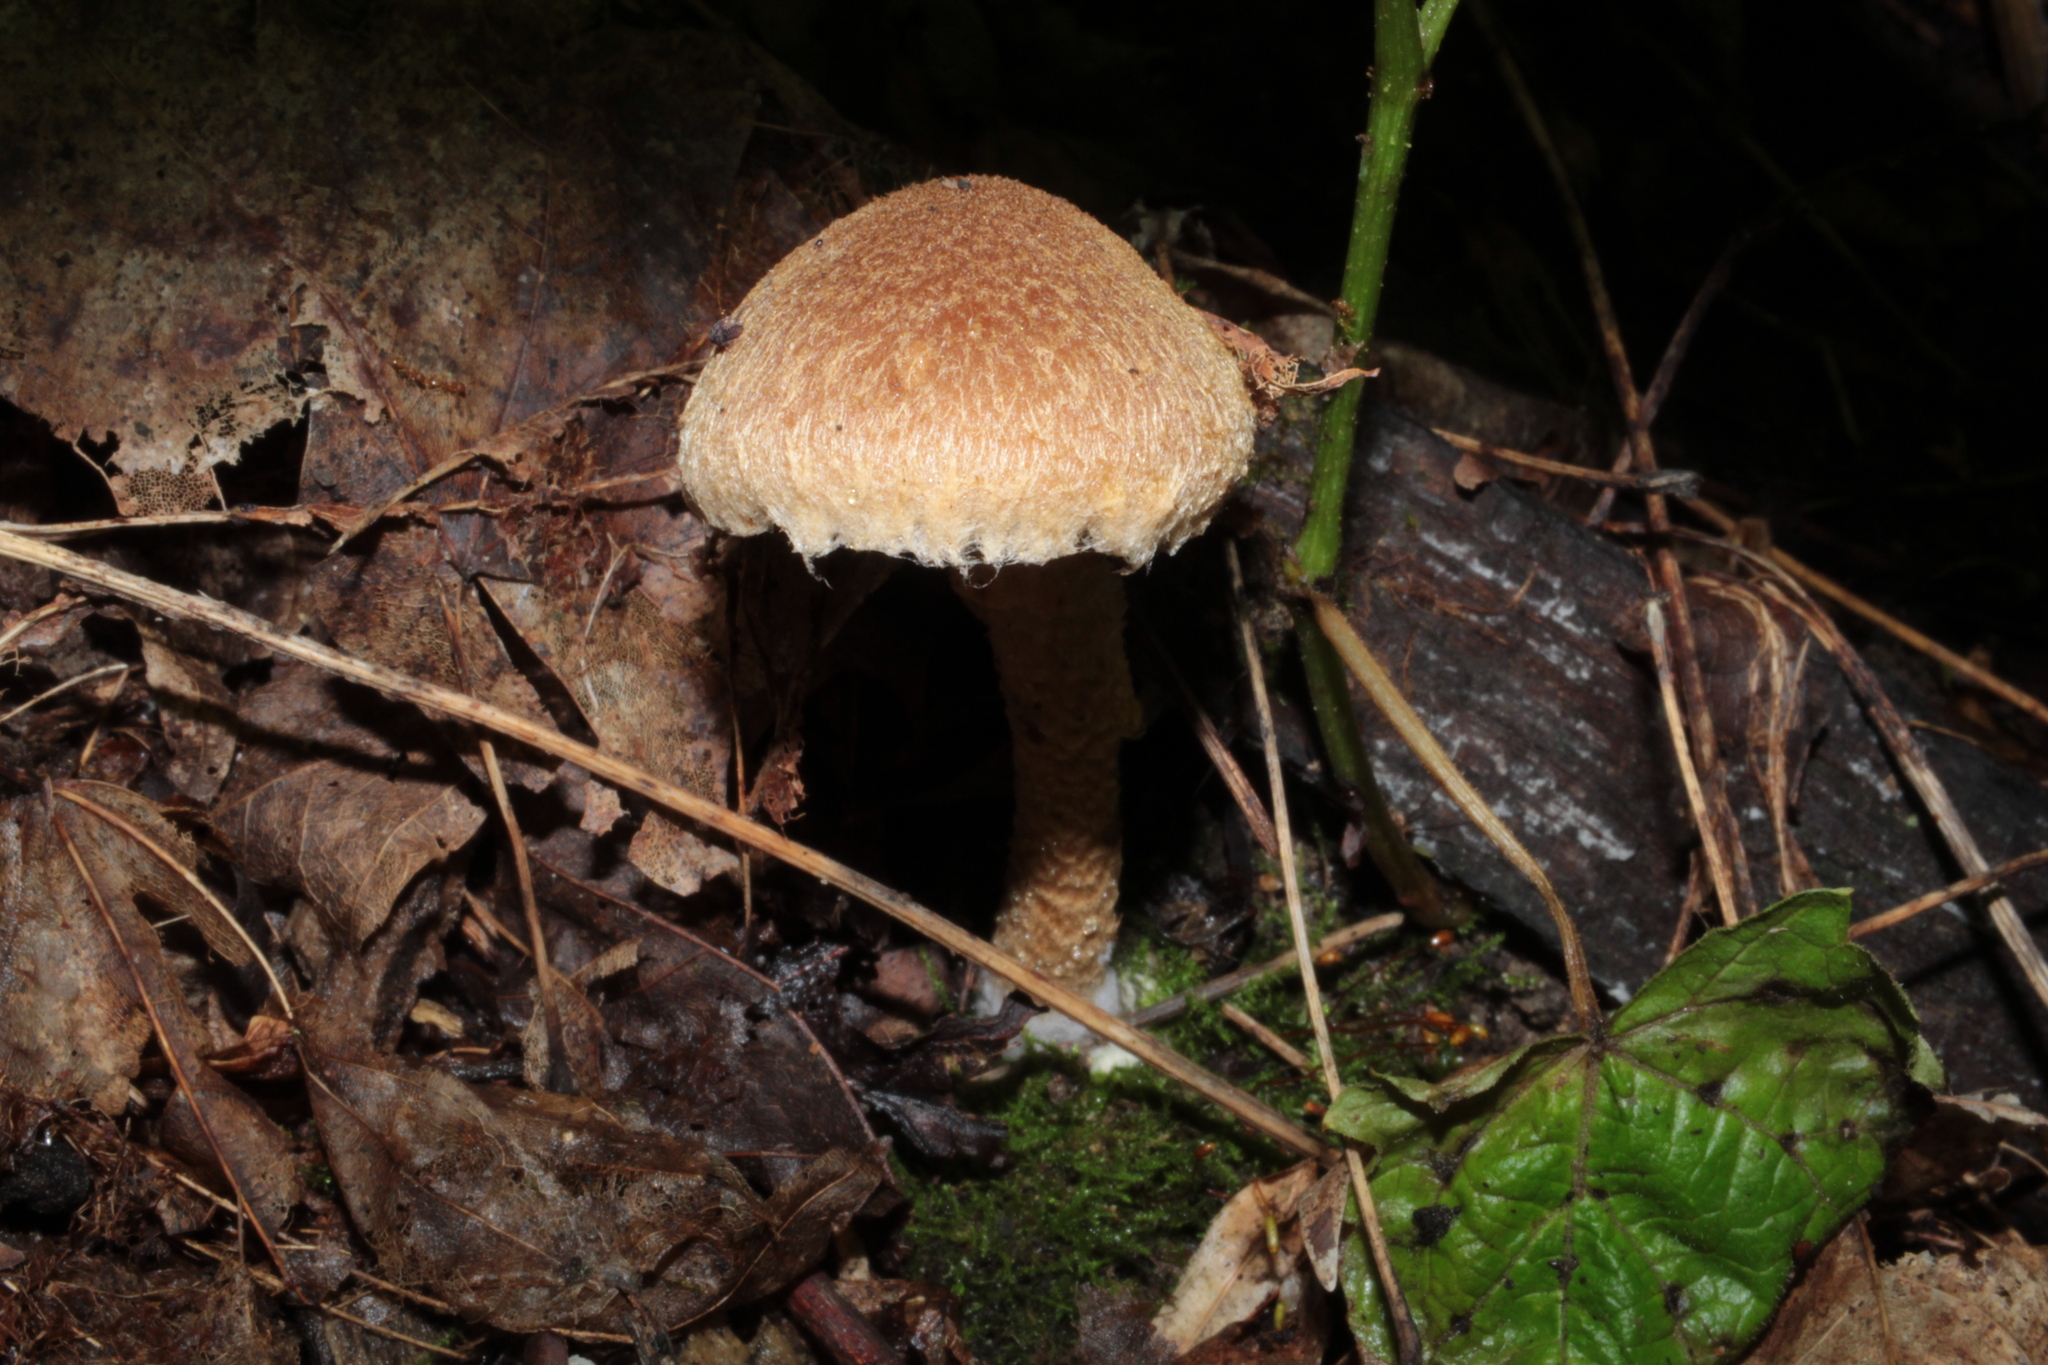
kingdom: Fungi
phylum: Basidiomycota
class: Agaricomycetes
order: Agaricales
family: Psathyrellaceae
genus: Lacrymaria
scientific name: Lacrymaria lacrymabunda
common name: Weeping widow
